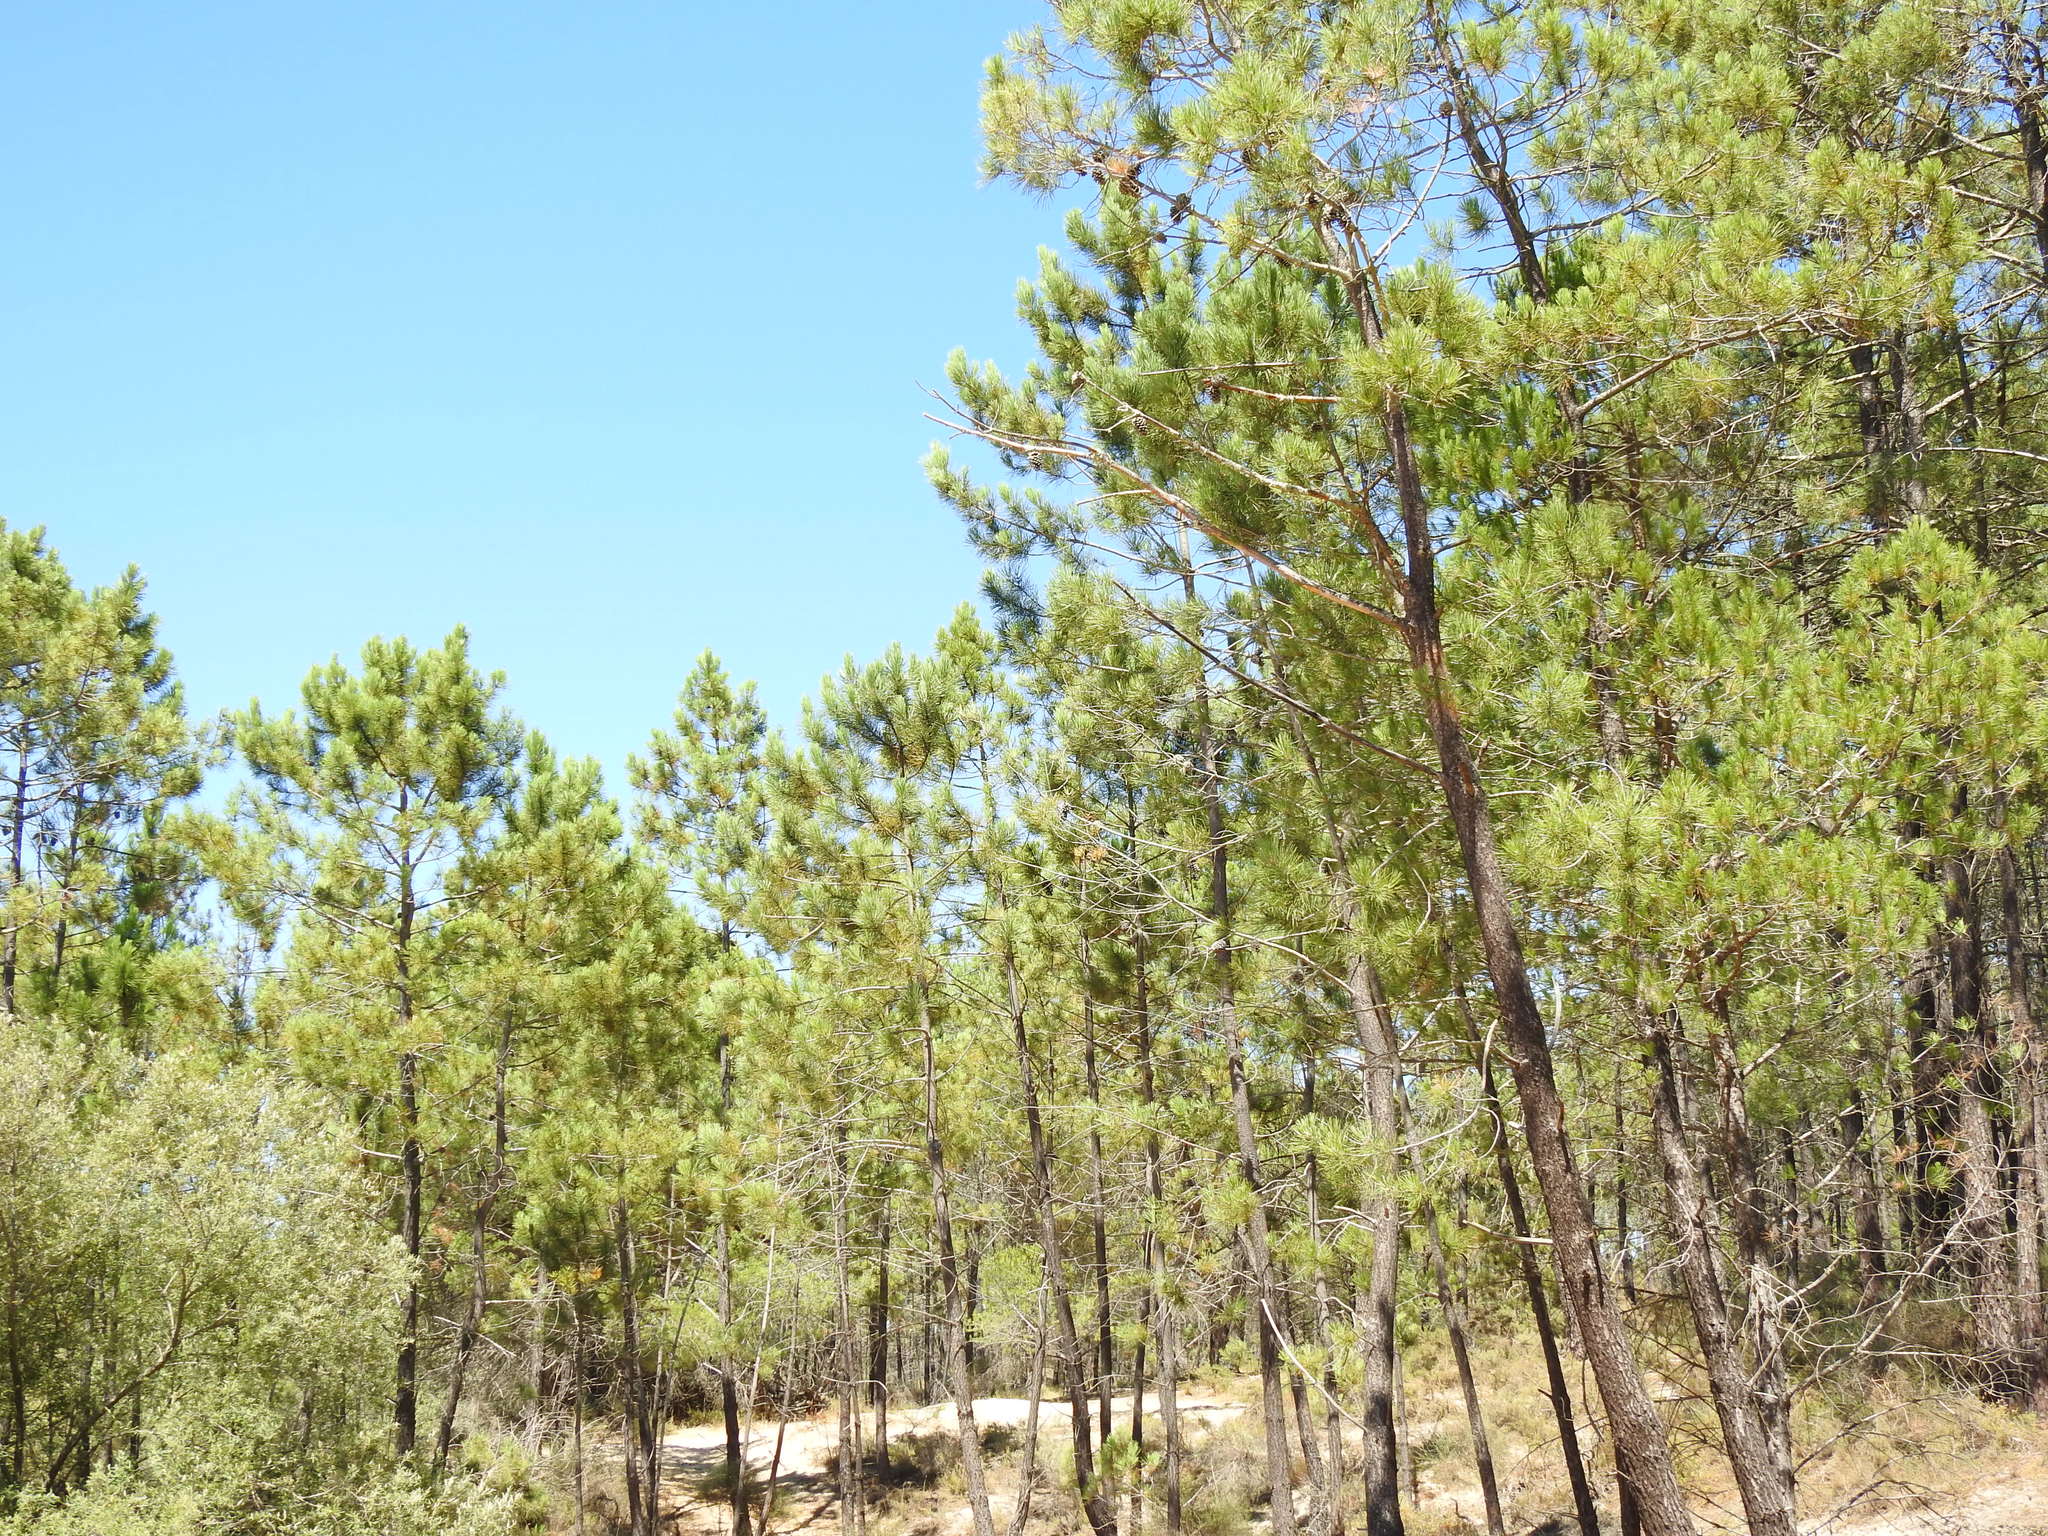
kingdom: Plantae
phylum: Tracheophyta
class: Pinopsida
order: Pinales
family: Pinaceae
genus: Pinus
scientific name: Pinus pinaster
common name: Maritime pine
